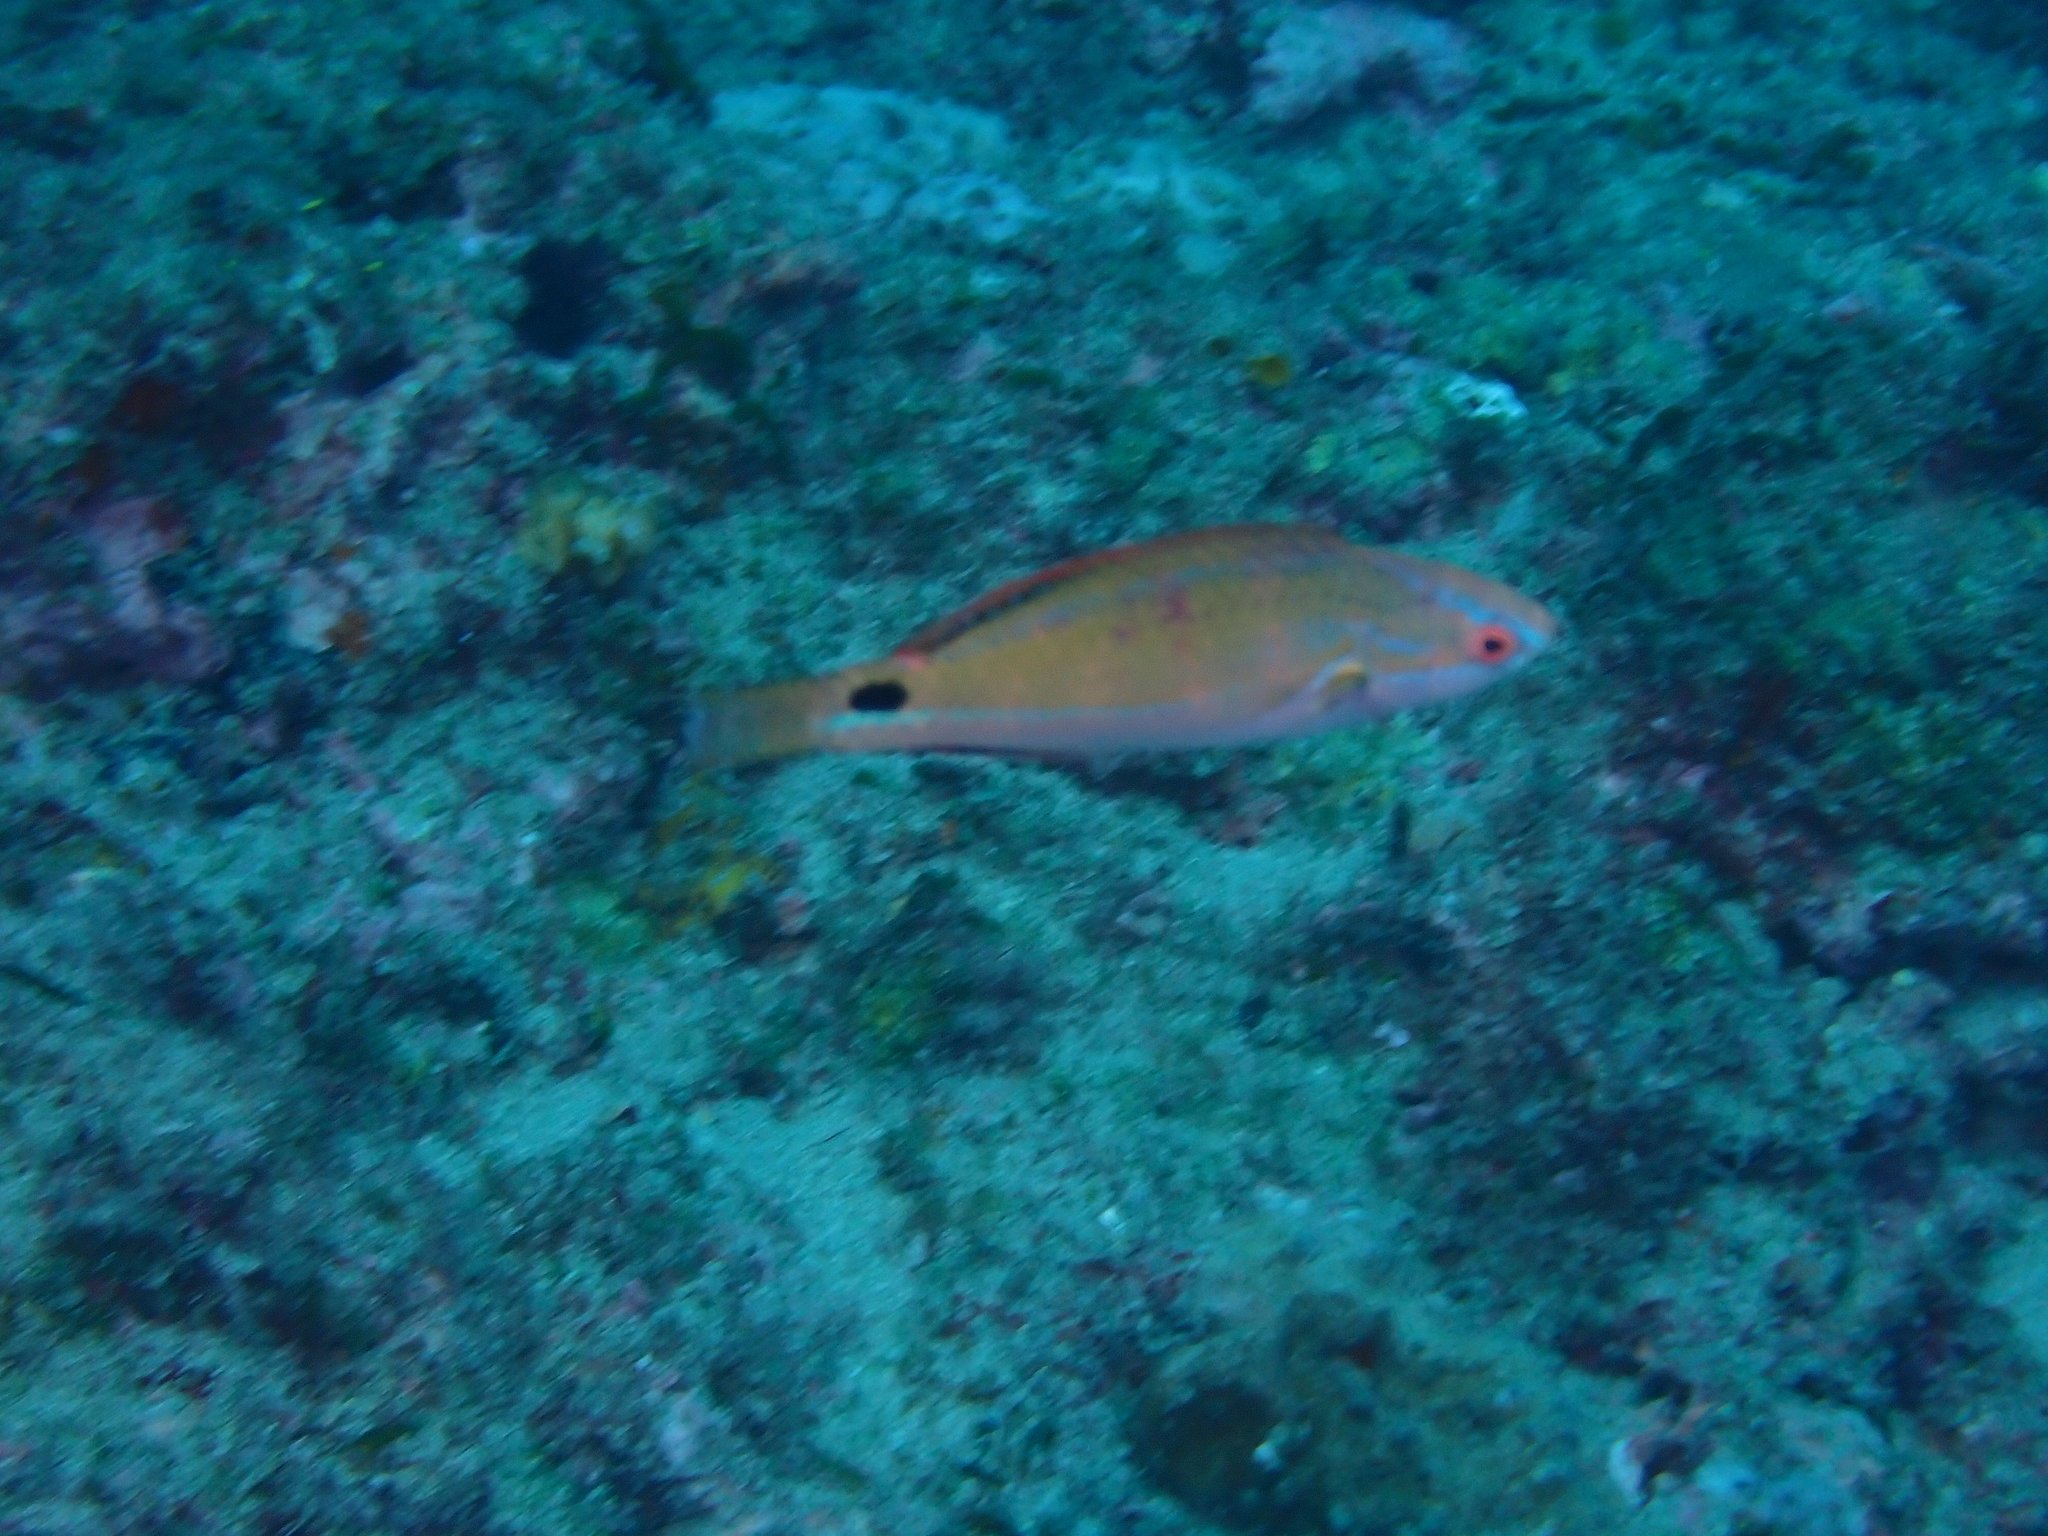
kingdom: Animalia
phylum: Chordata
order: Perciformes
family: Labridae
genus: Cirrhilabrus
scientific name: Cirrhilabrus exquisitus
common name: Exquisite wrasse
